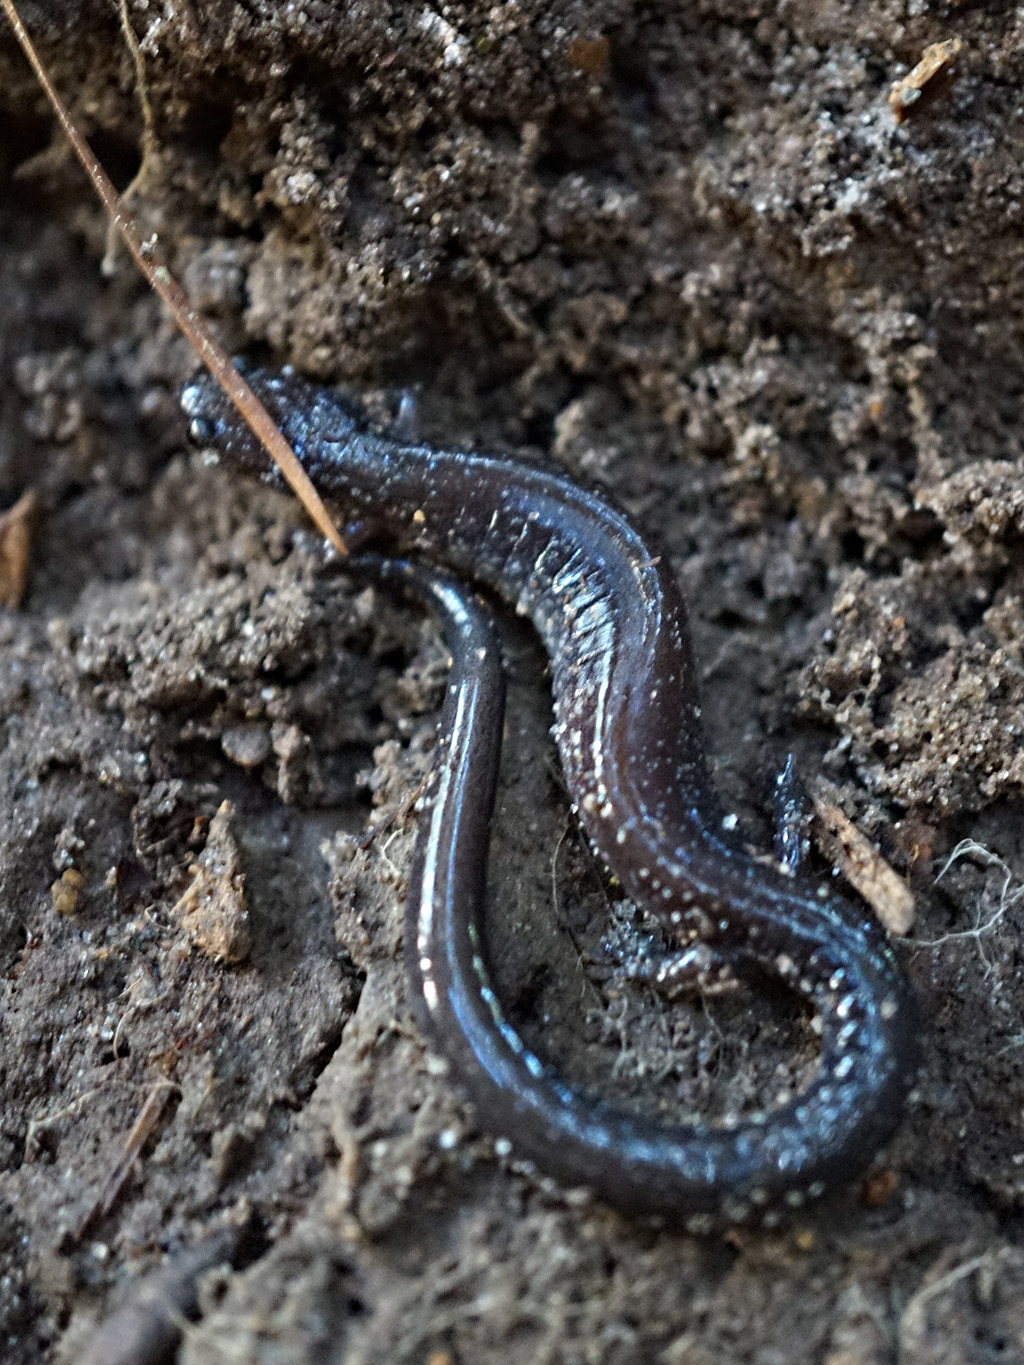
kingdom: Animalia
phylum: Chordata
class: Amphibia
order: Caudata
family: Plethodontidae
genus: Plethodon
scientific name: Plethodon cinereus
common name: Redback salamander
